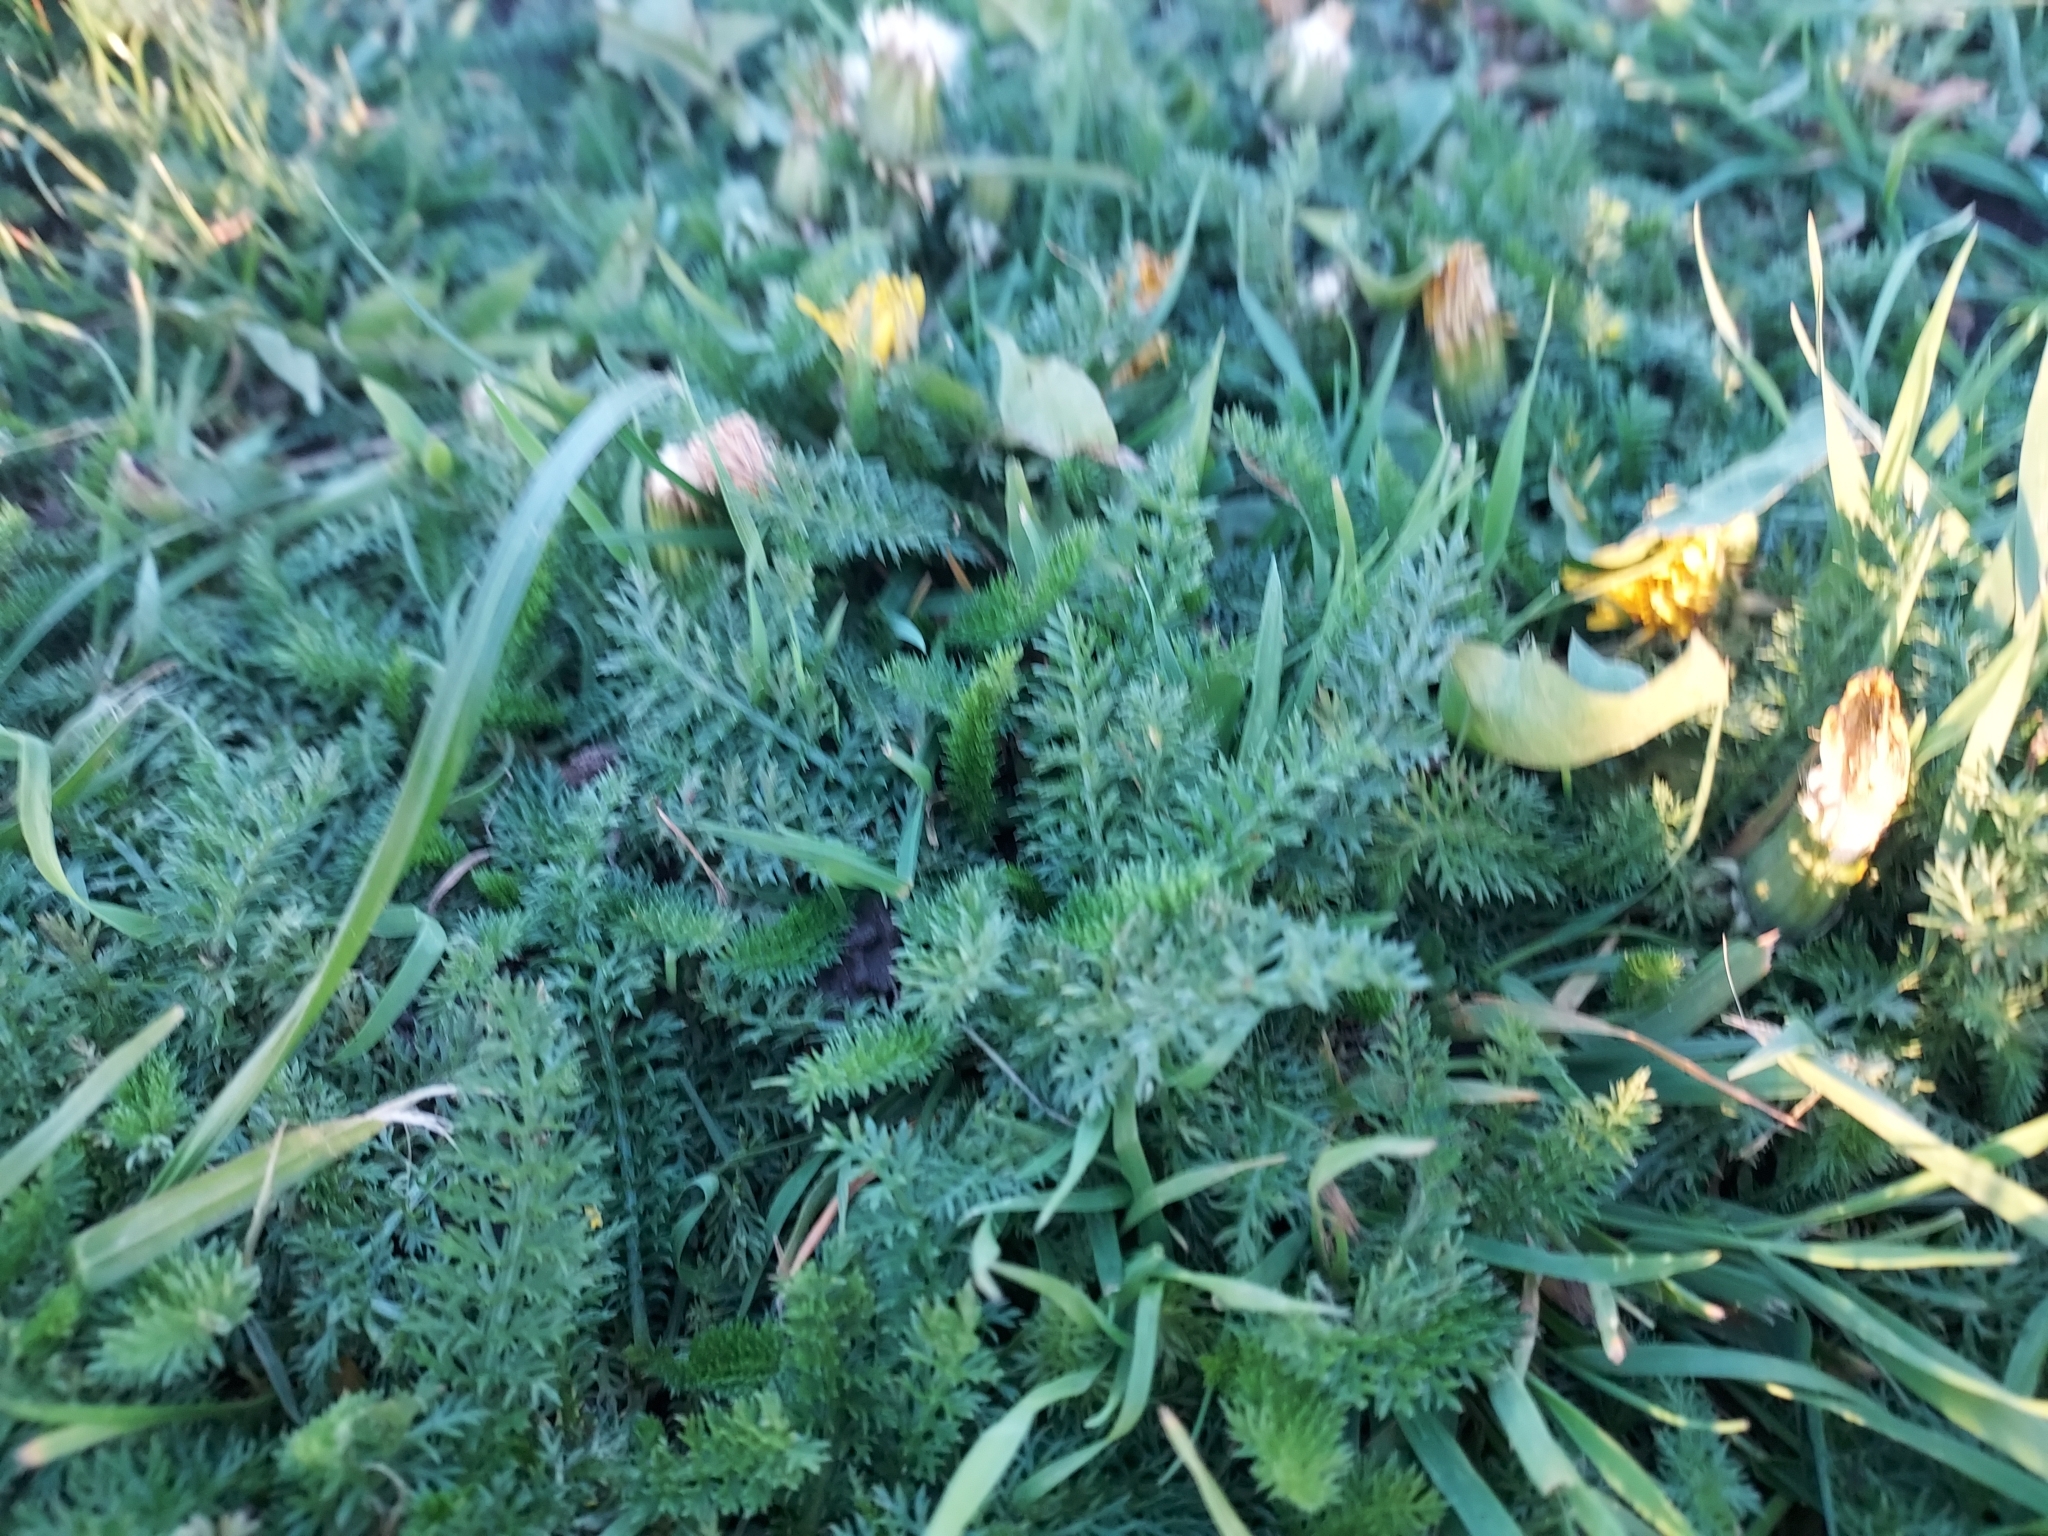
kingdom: Plantae
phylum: Tracheophyta
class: Magnoliopsida
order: Asterales
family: Asteraceae
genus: Achillea
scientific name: Achillea millefolium
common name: Yarrow
